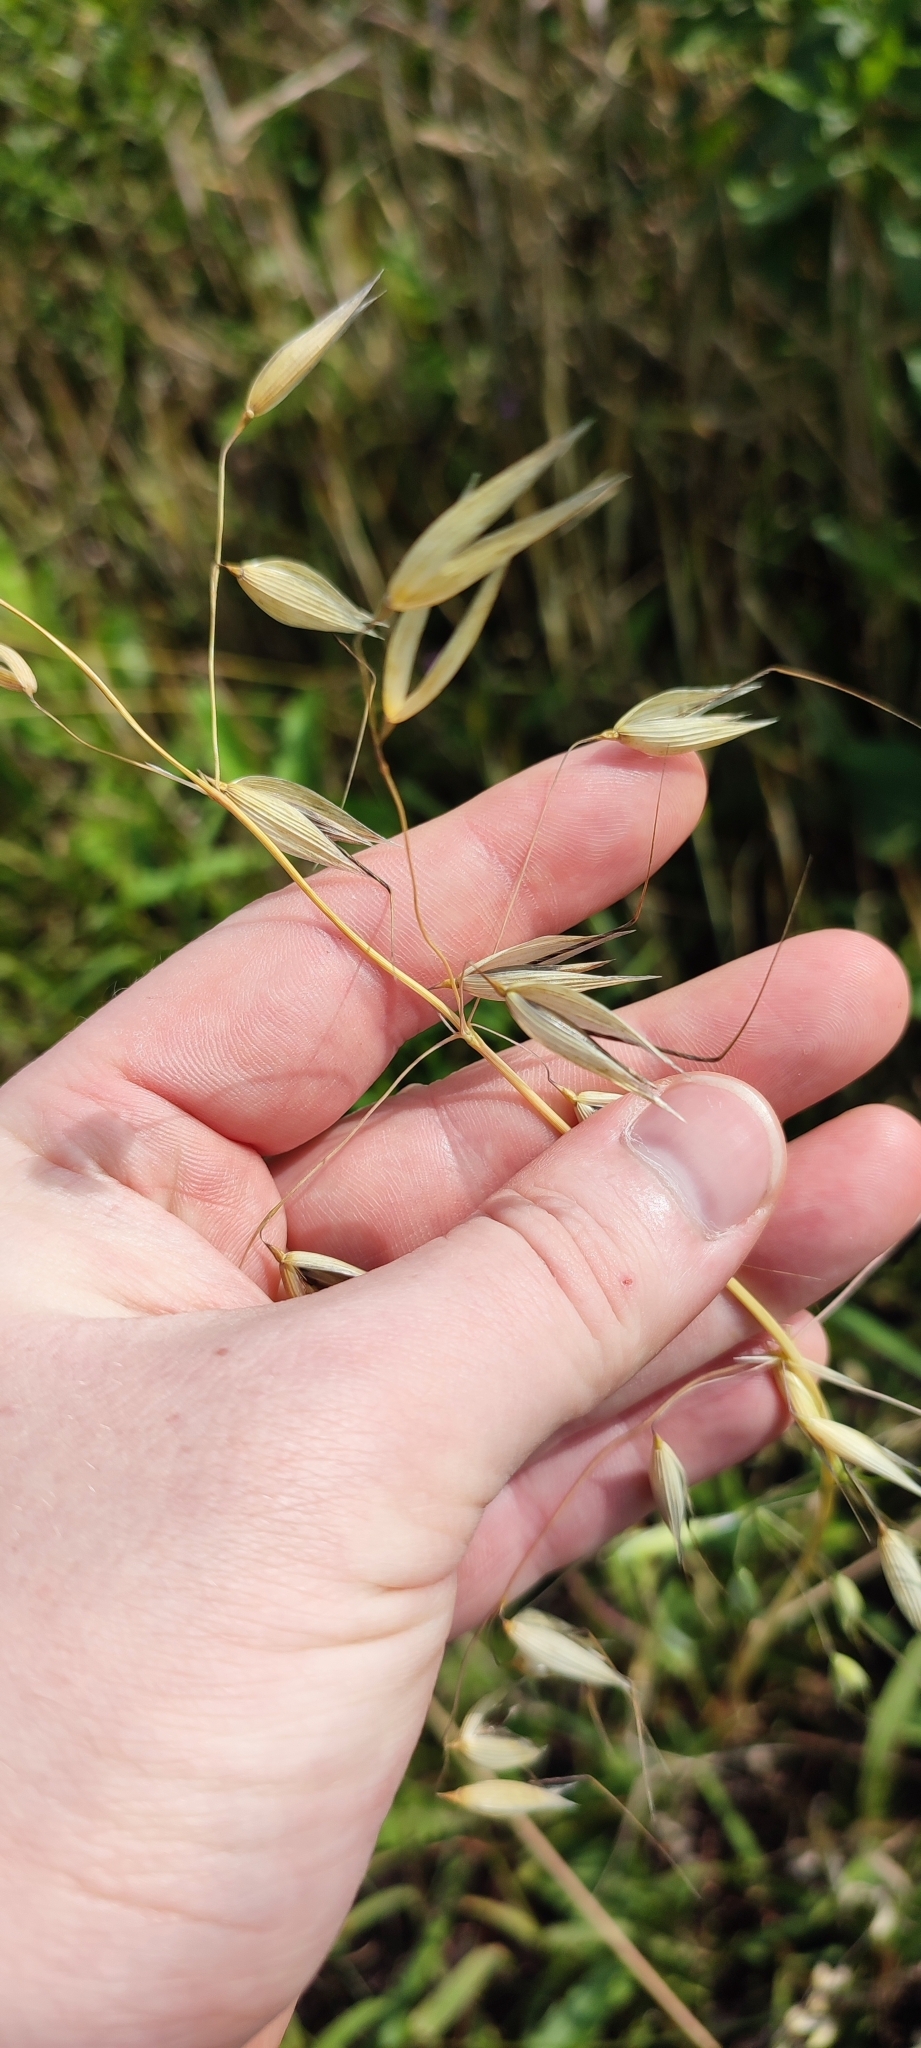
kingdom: Plantae
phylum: Tracheophyta
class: Liliopsida
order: Poales
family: Poaceae
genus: Avena
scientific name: Avena fatua
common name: Wild oat
